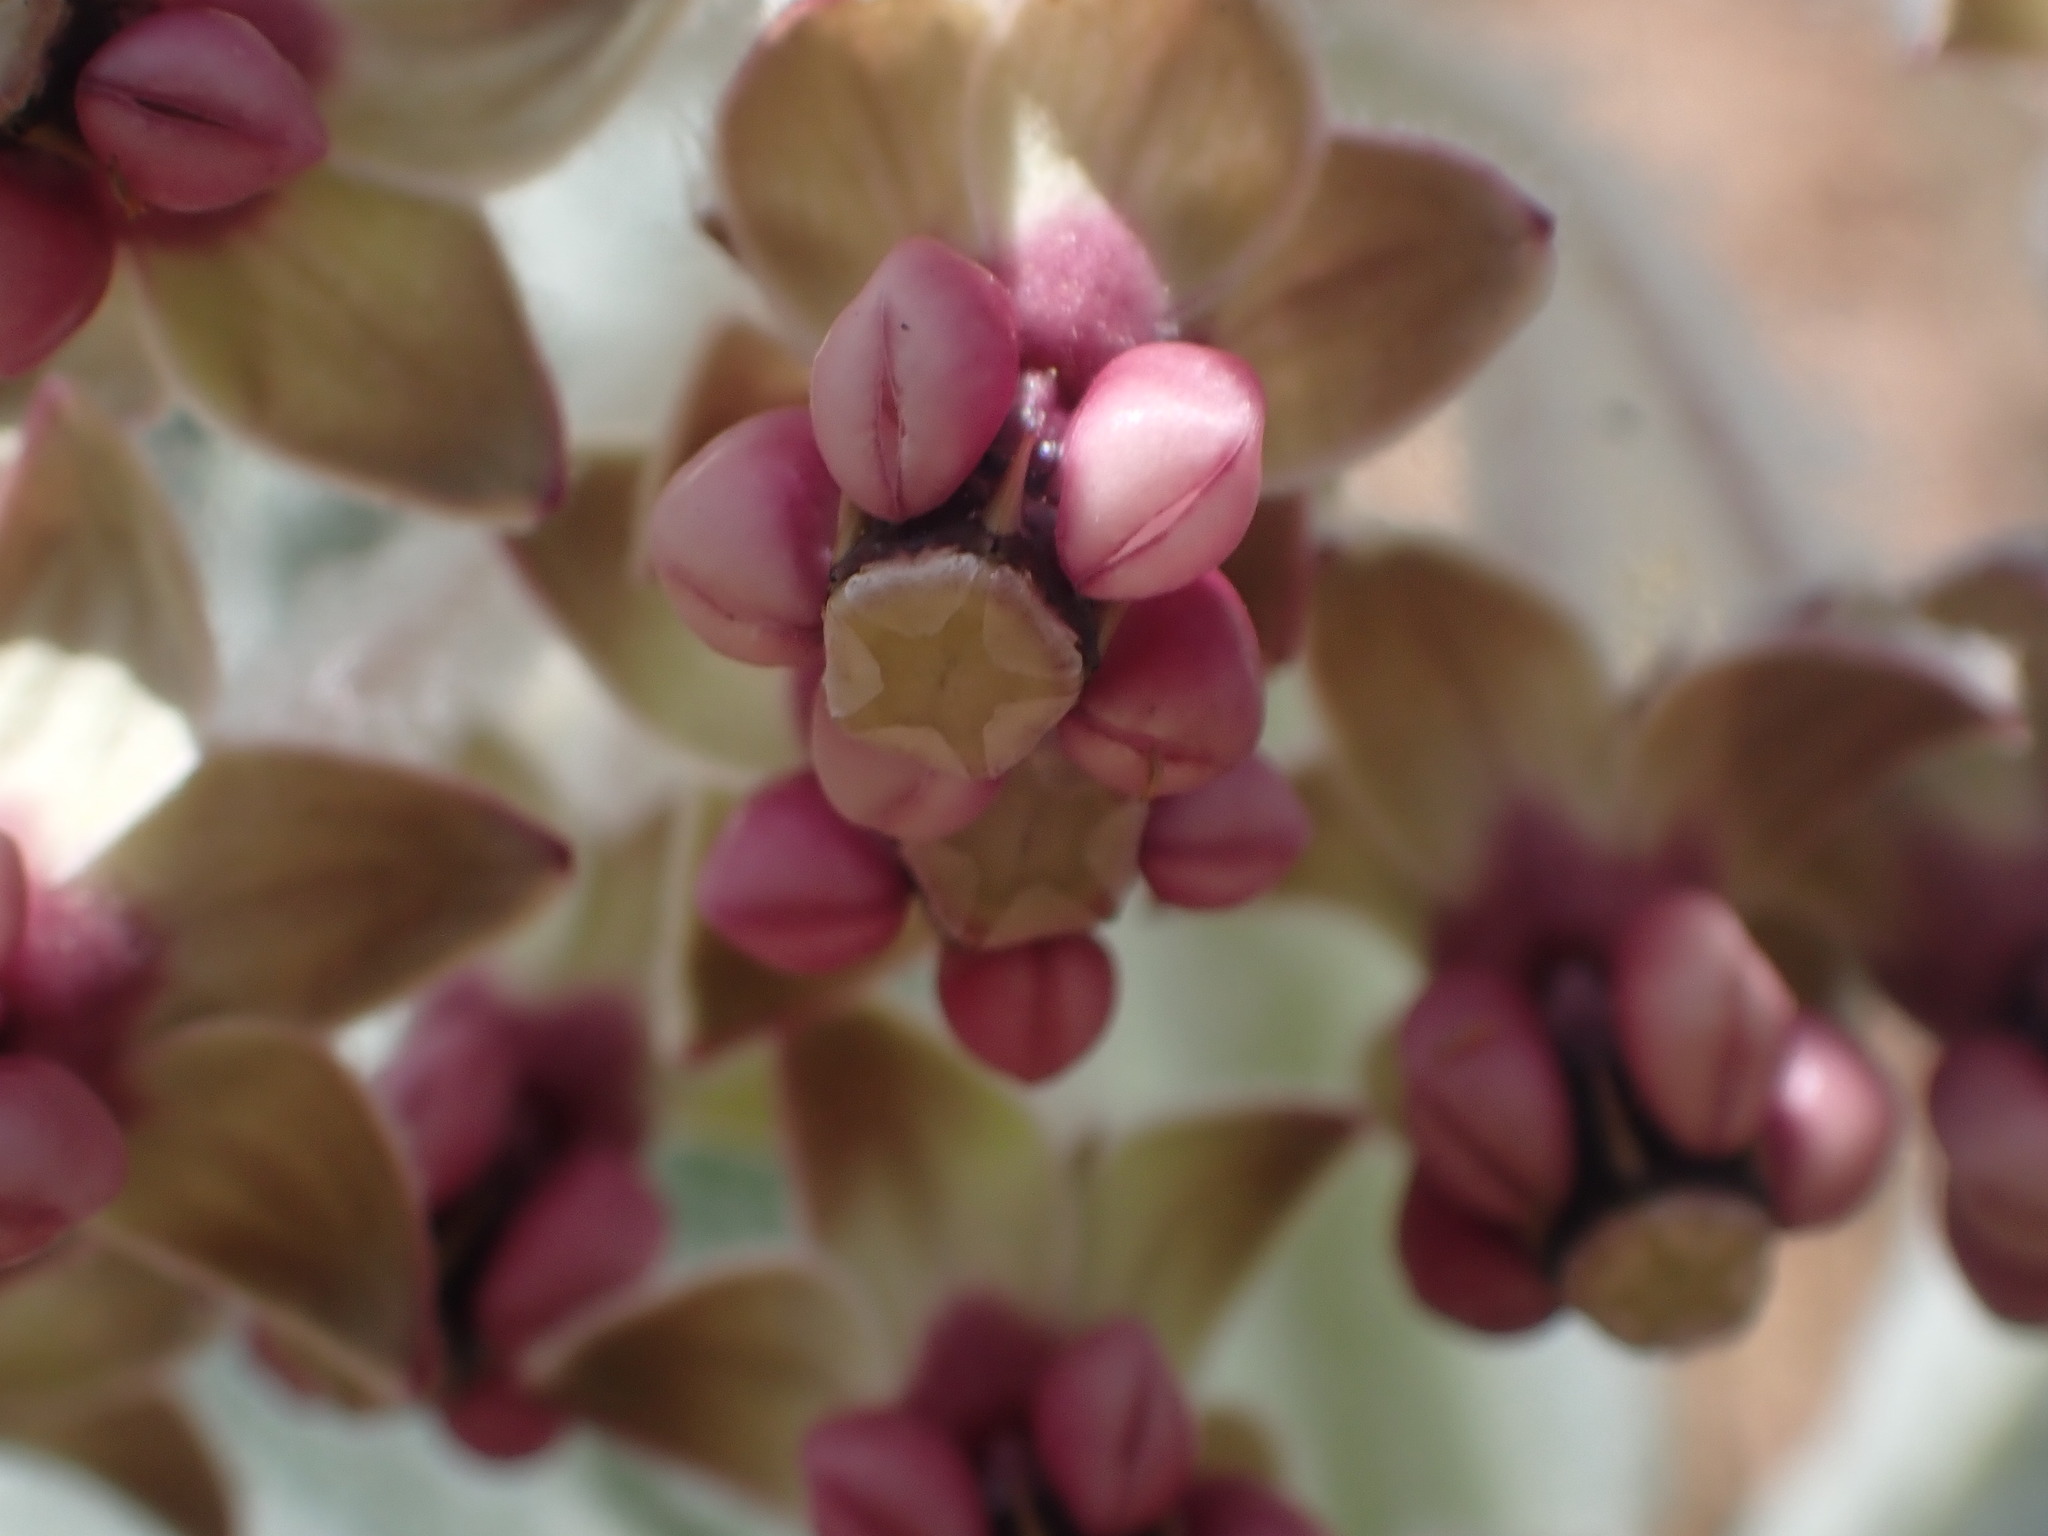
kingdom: Plantae
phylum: Tracheophyta
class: Magnoliopsida
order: Gentianales
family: Apocynaceae
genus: Asclepias
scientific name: Asclepias californica
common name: California milkweed
